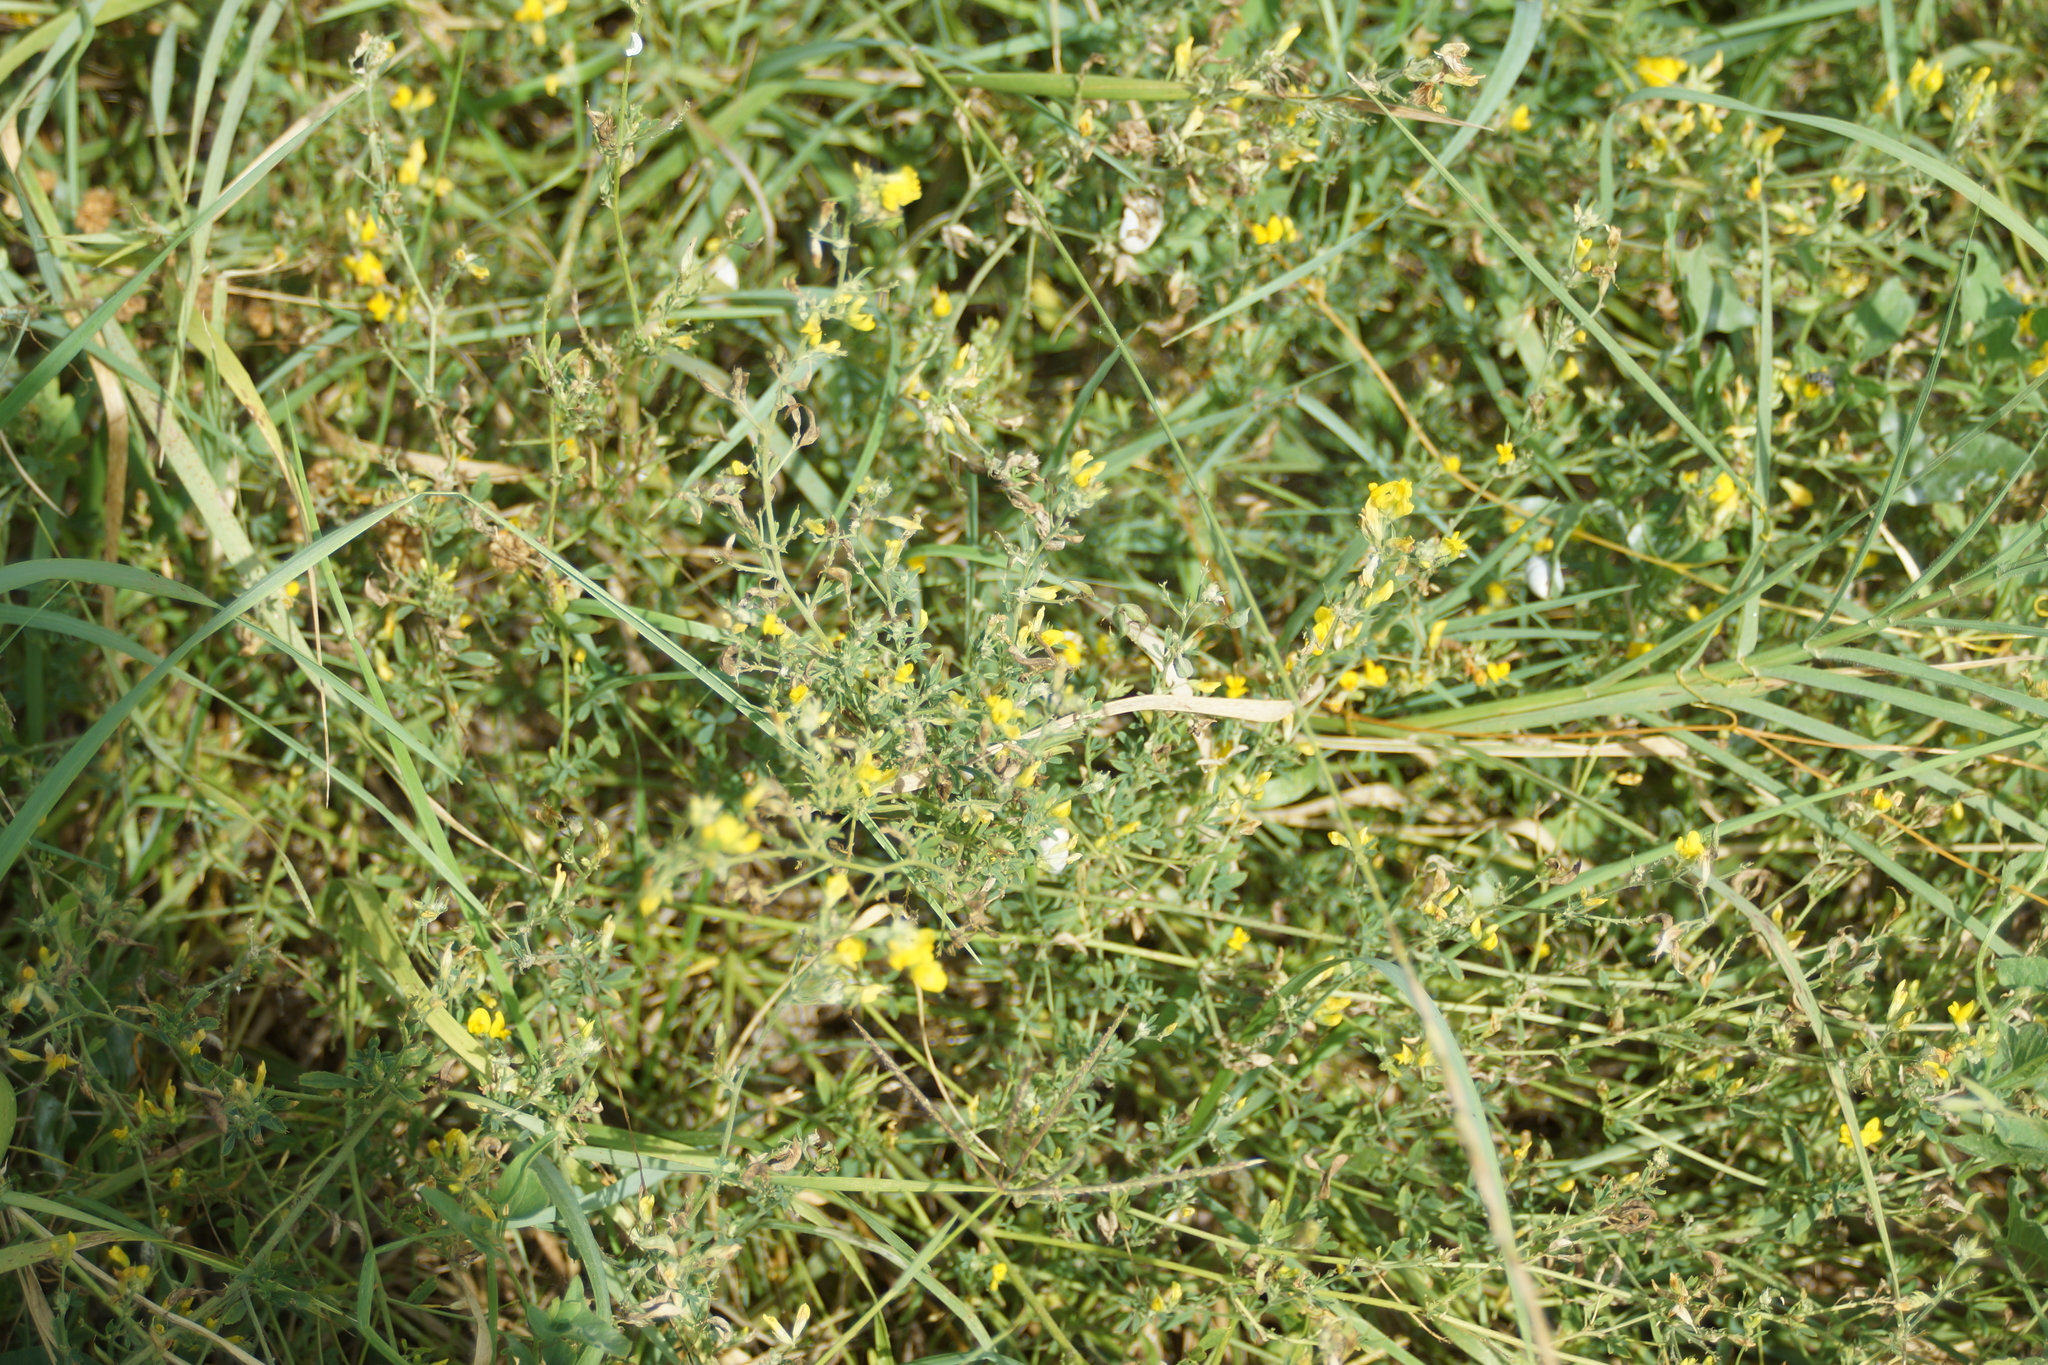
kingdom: Plantae
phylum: Tracheophyta
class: Magnoliopsida
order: Fabales
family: Fabaceae
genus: Medicago
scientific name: Medicago falcata
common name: Sickle medick
